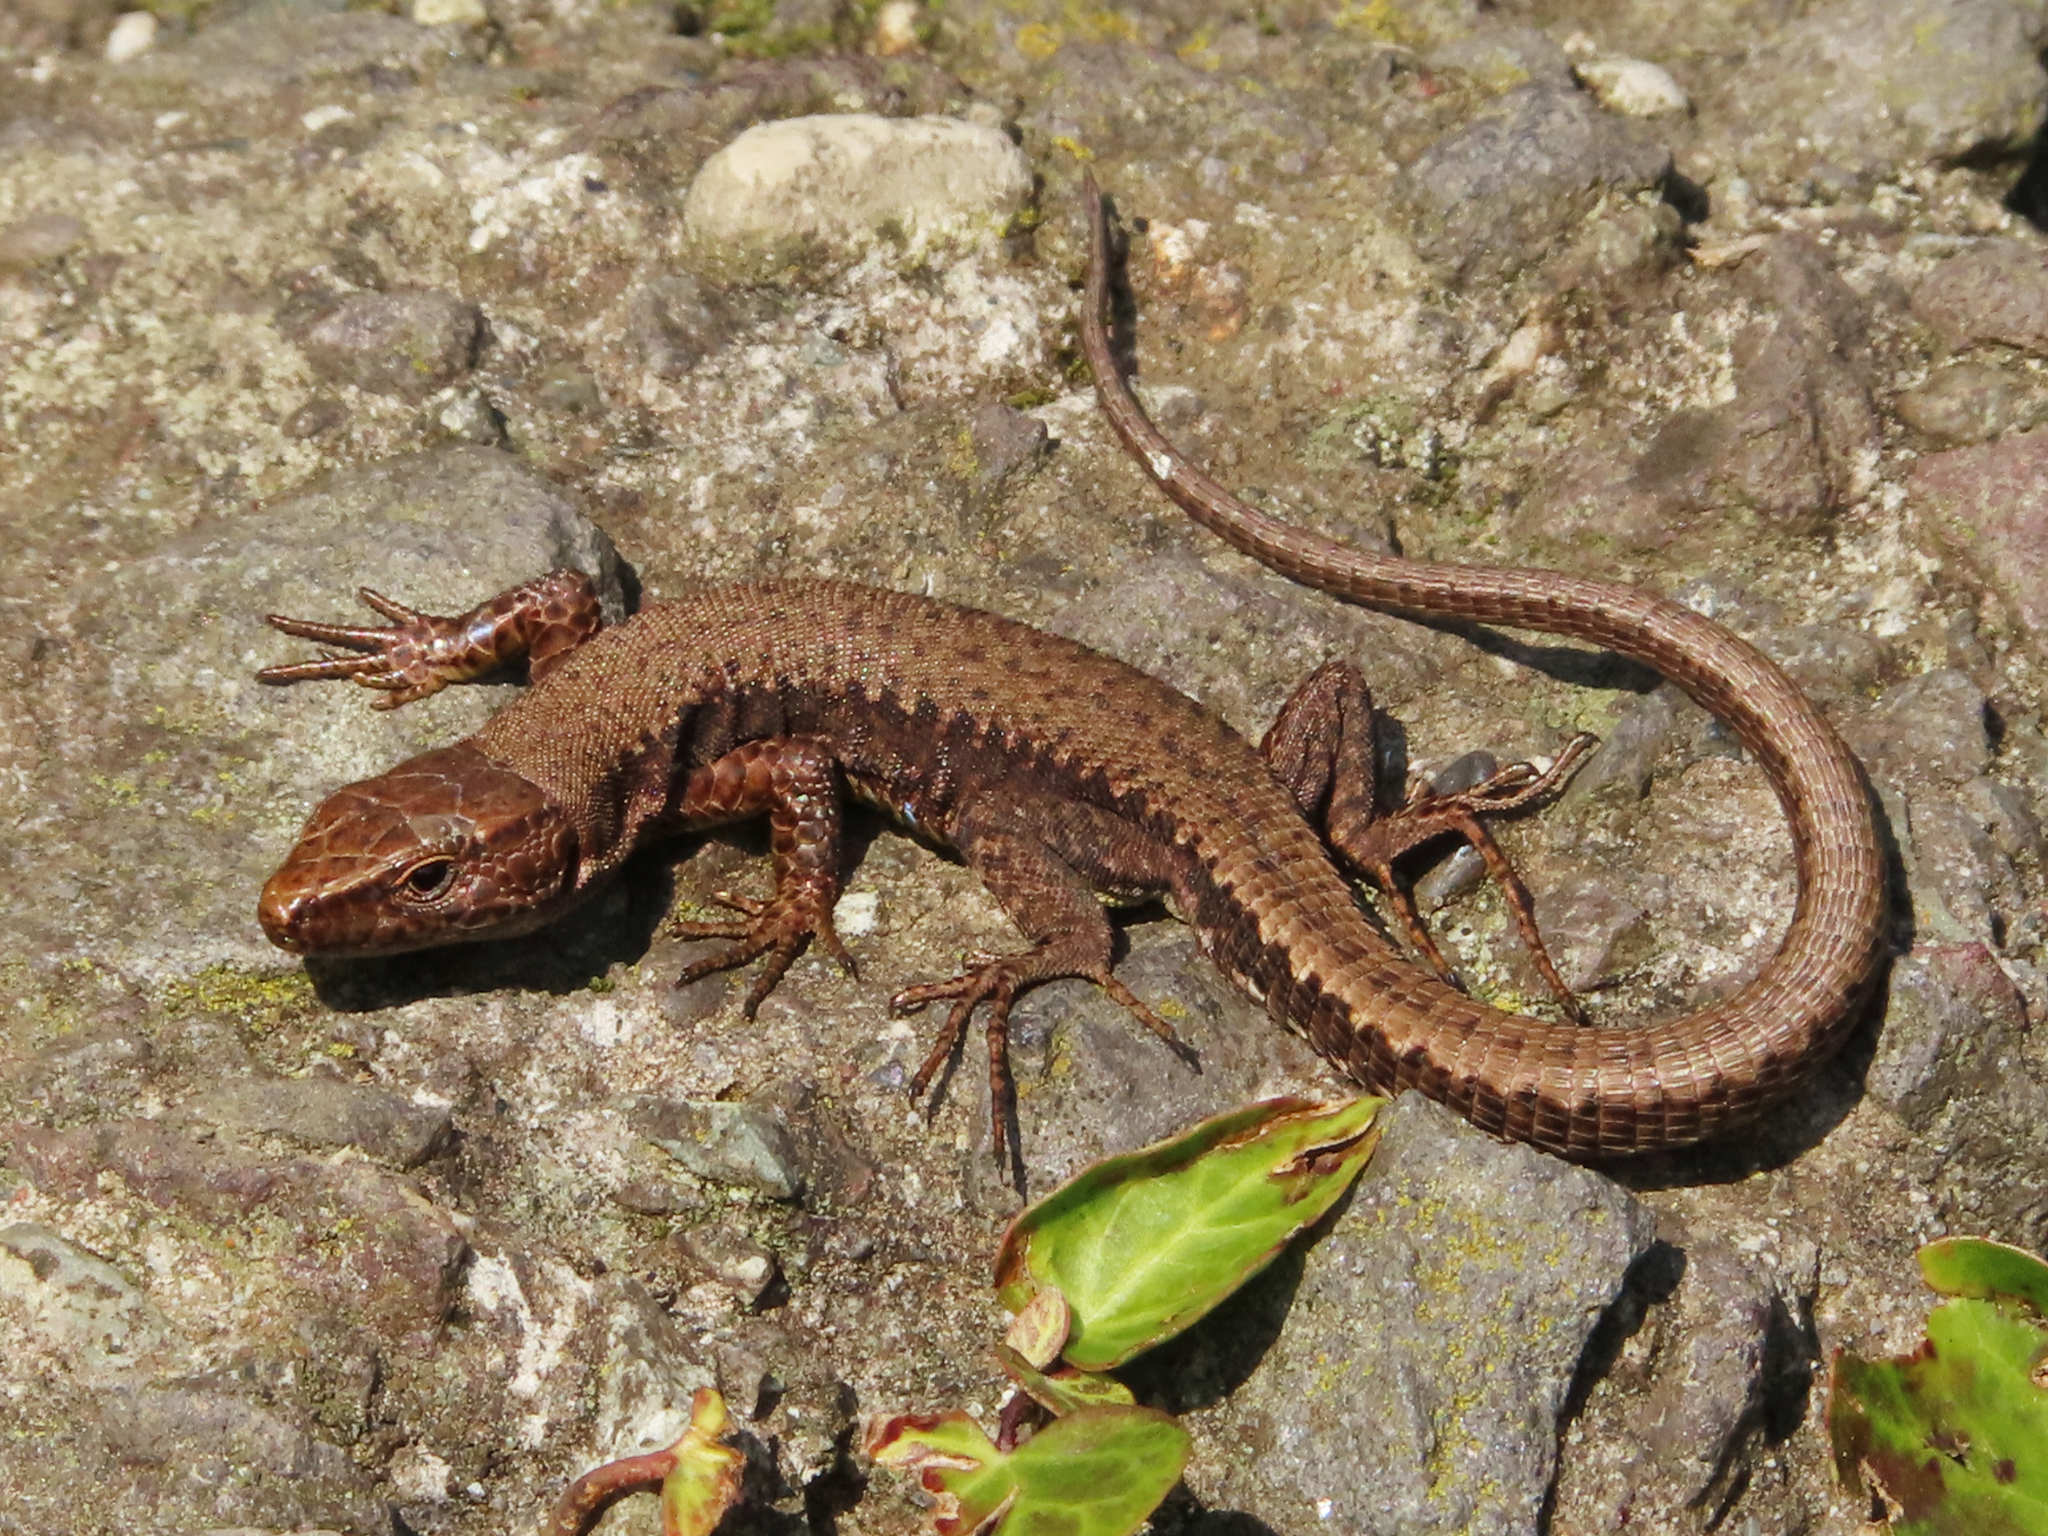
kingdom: Animalia
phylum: Chordata
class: Squamata
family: Lacertidae
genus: Darevskia
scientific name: Darevskia derjugini
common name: Derjugin's lizard
